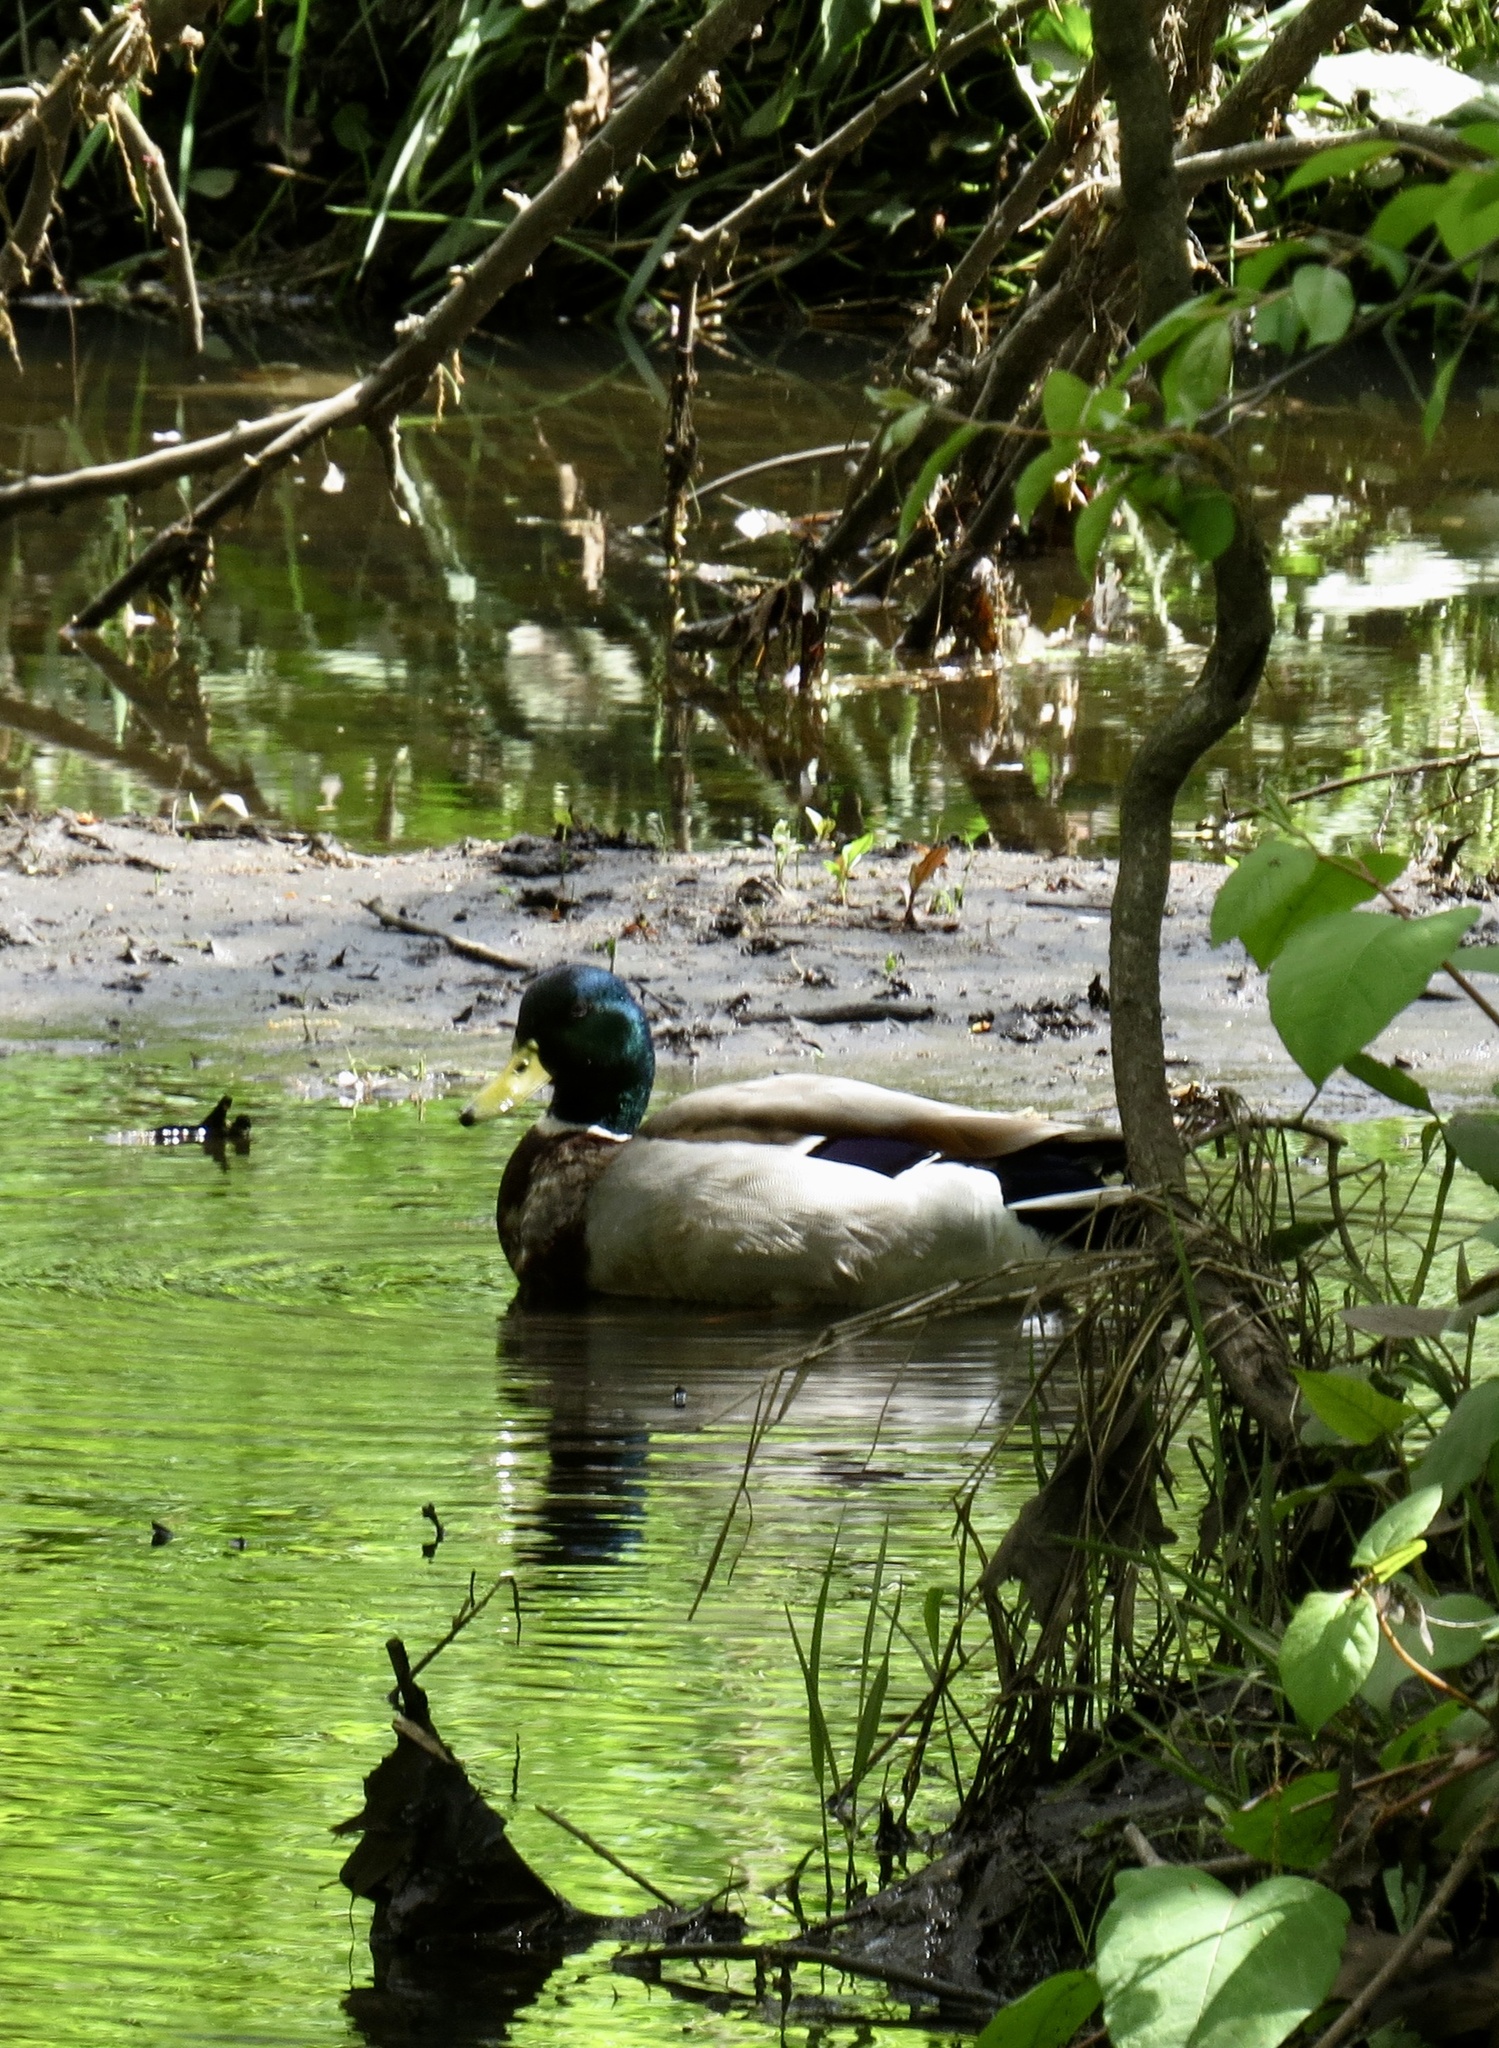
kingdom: Animalia
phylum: Chordata
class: Aves
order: Anseriformes
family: Anatidae
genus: Anas
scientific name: Anas platyrhynchos
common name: Mallard
